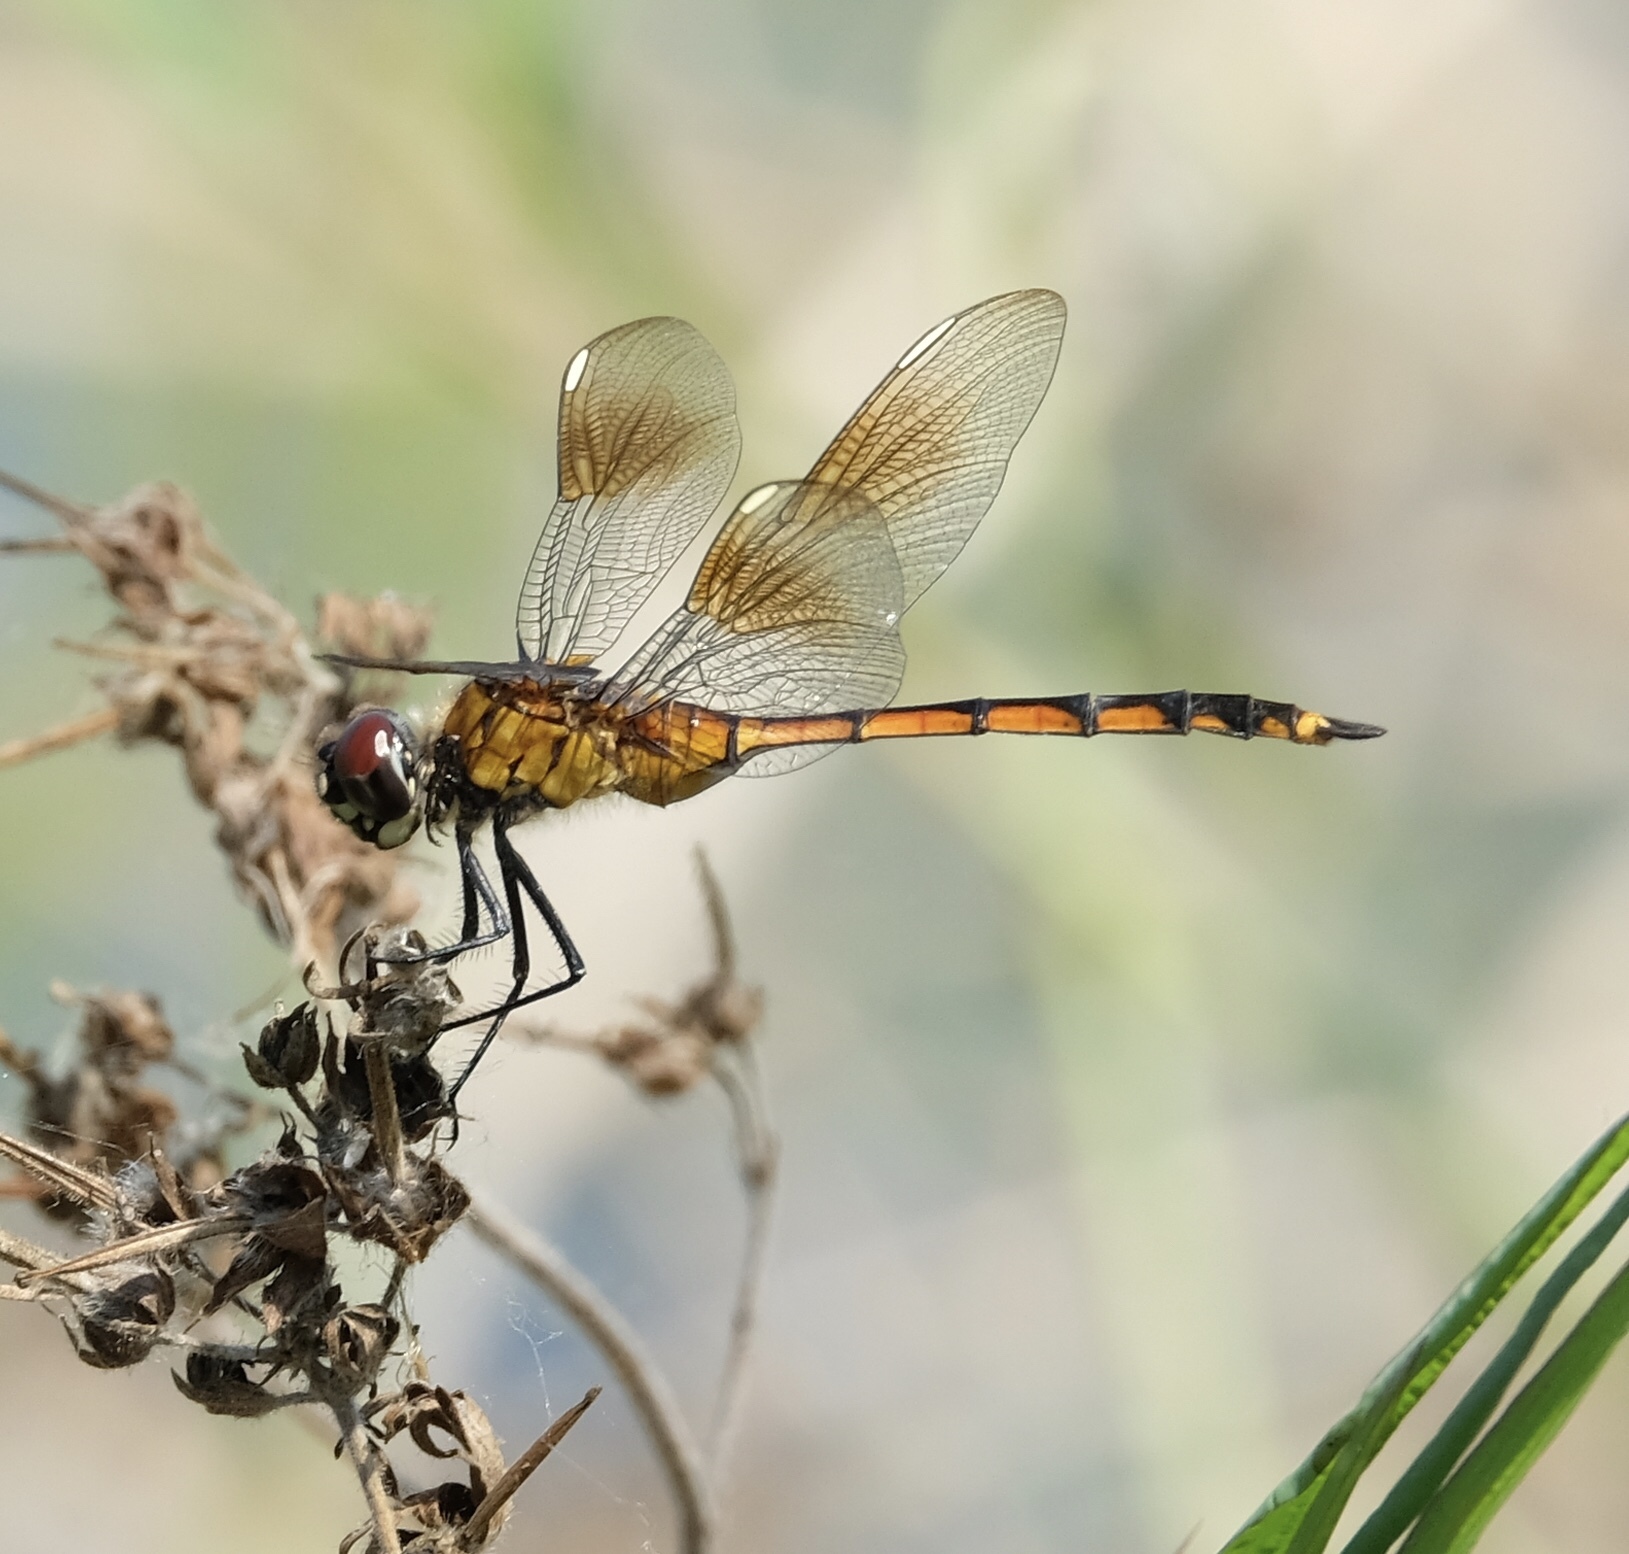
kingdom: Animalia
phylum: Arthropoda
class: Insecta
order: Odonata
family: Libellulidae
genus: Brachymesia
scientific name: Brachymesia gravida
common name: Four-spotted pennant
